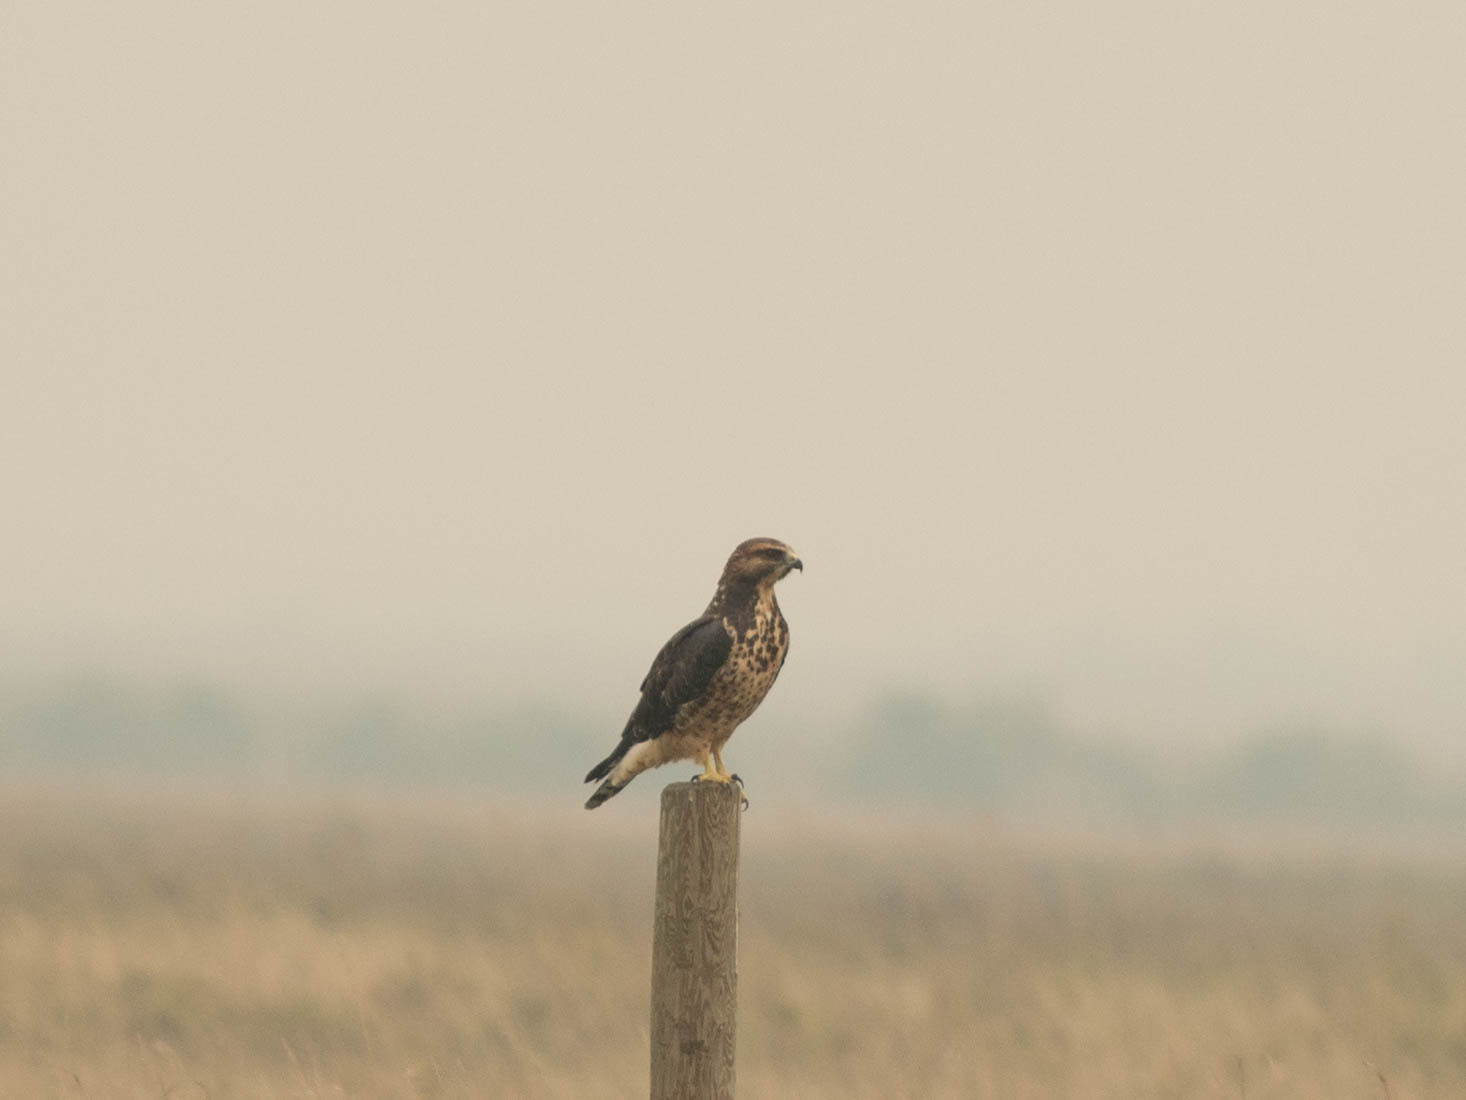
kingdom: Animalia
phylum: Chordata
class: Aves
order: Accipitriformes
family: Accipitridae
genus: Buteo
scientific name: Buteo swainsoni
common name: Swainson's hawk
